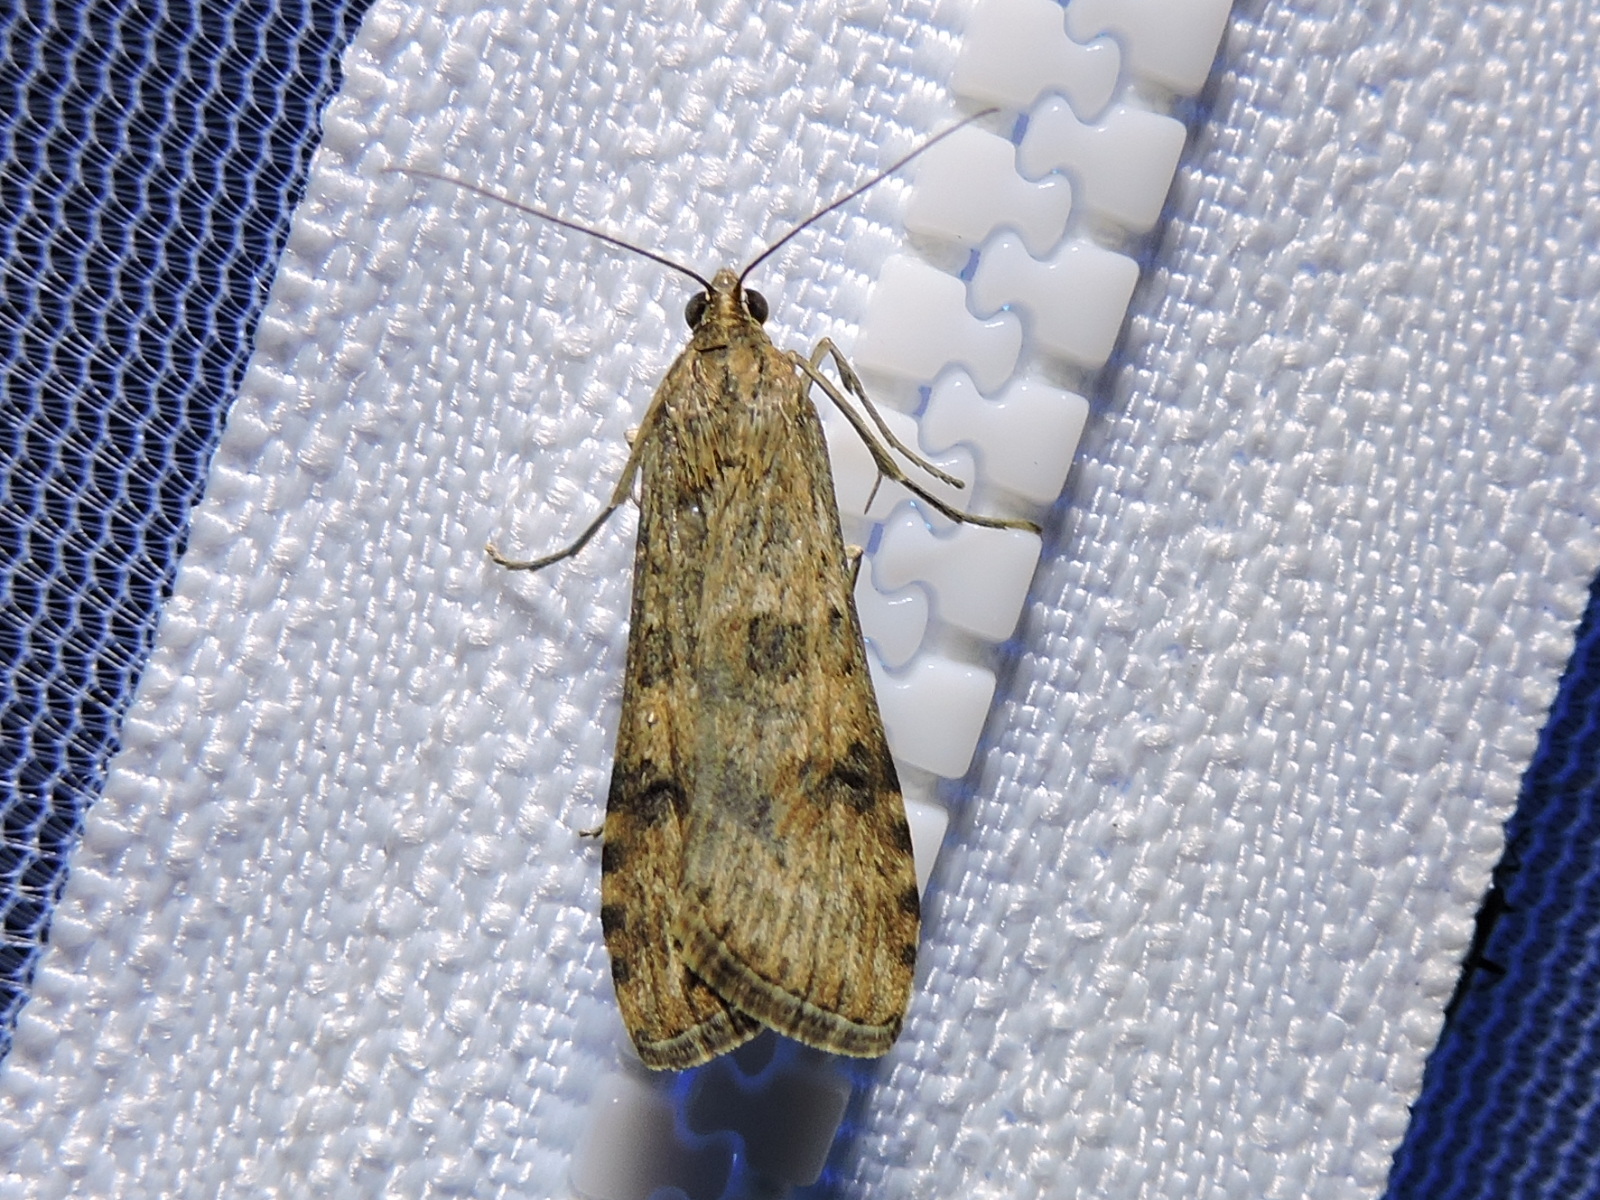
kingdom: Animalia
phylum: Arthropoda
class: Insecta
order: Lepidoptera
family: Crambidae
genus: Nomophila
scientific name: Nomophila nearctica
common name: American rush veneer
